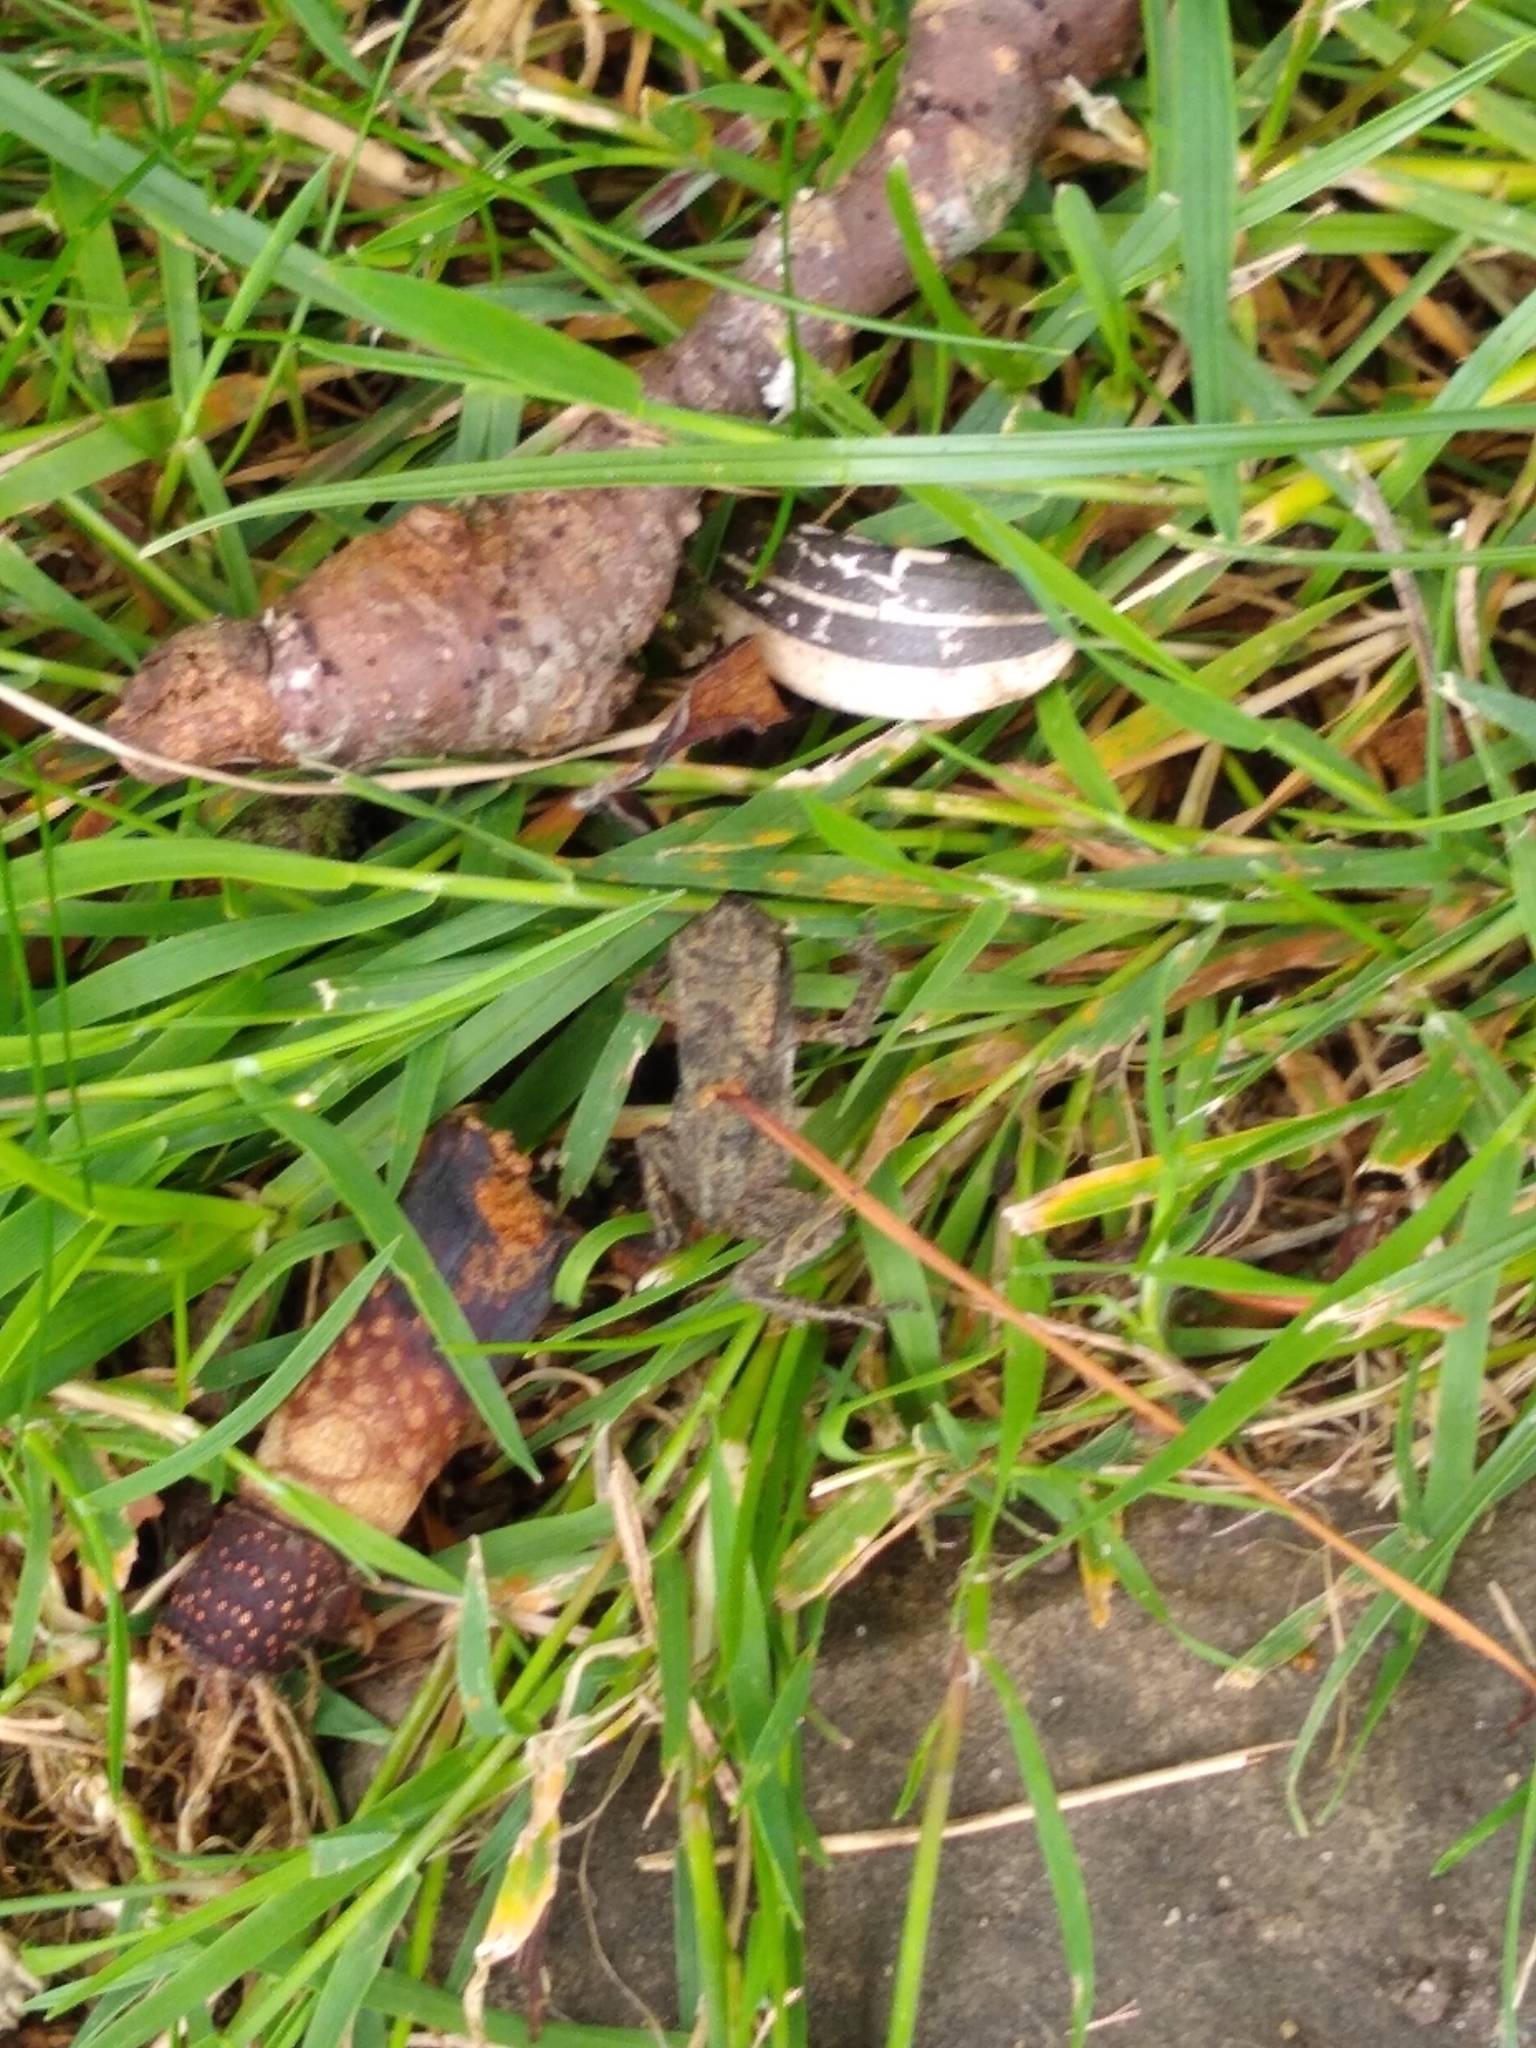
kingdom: Animalia
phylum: Chordata
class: Amphibia
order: Anura
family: Bufonidae
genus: Bufo
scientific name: Bufo bufo
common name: Common toad
